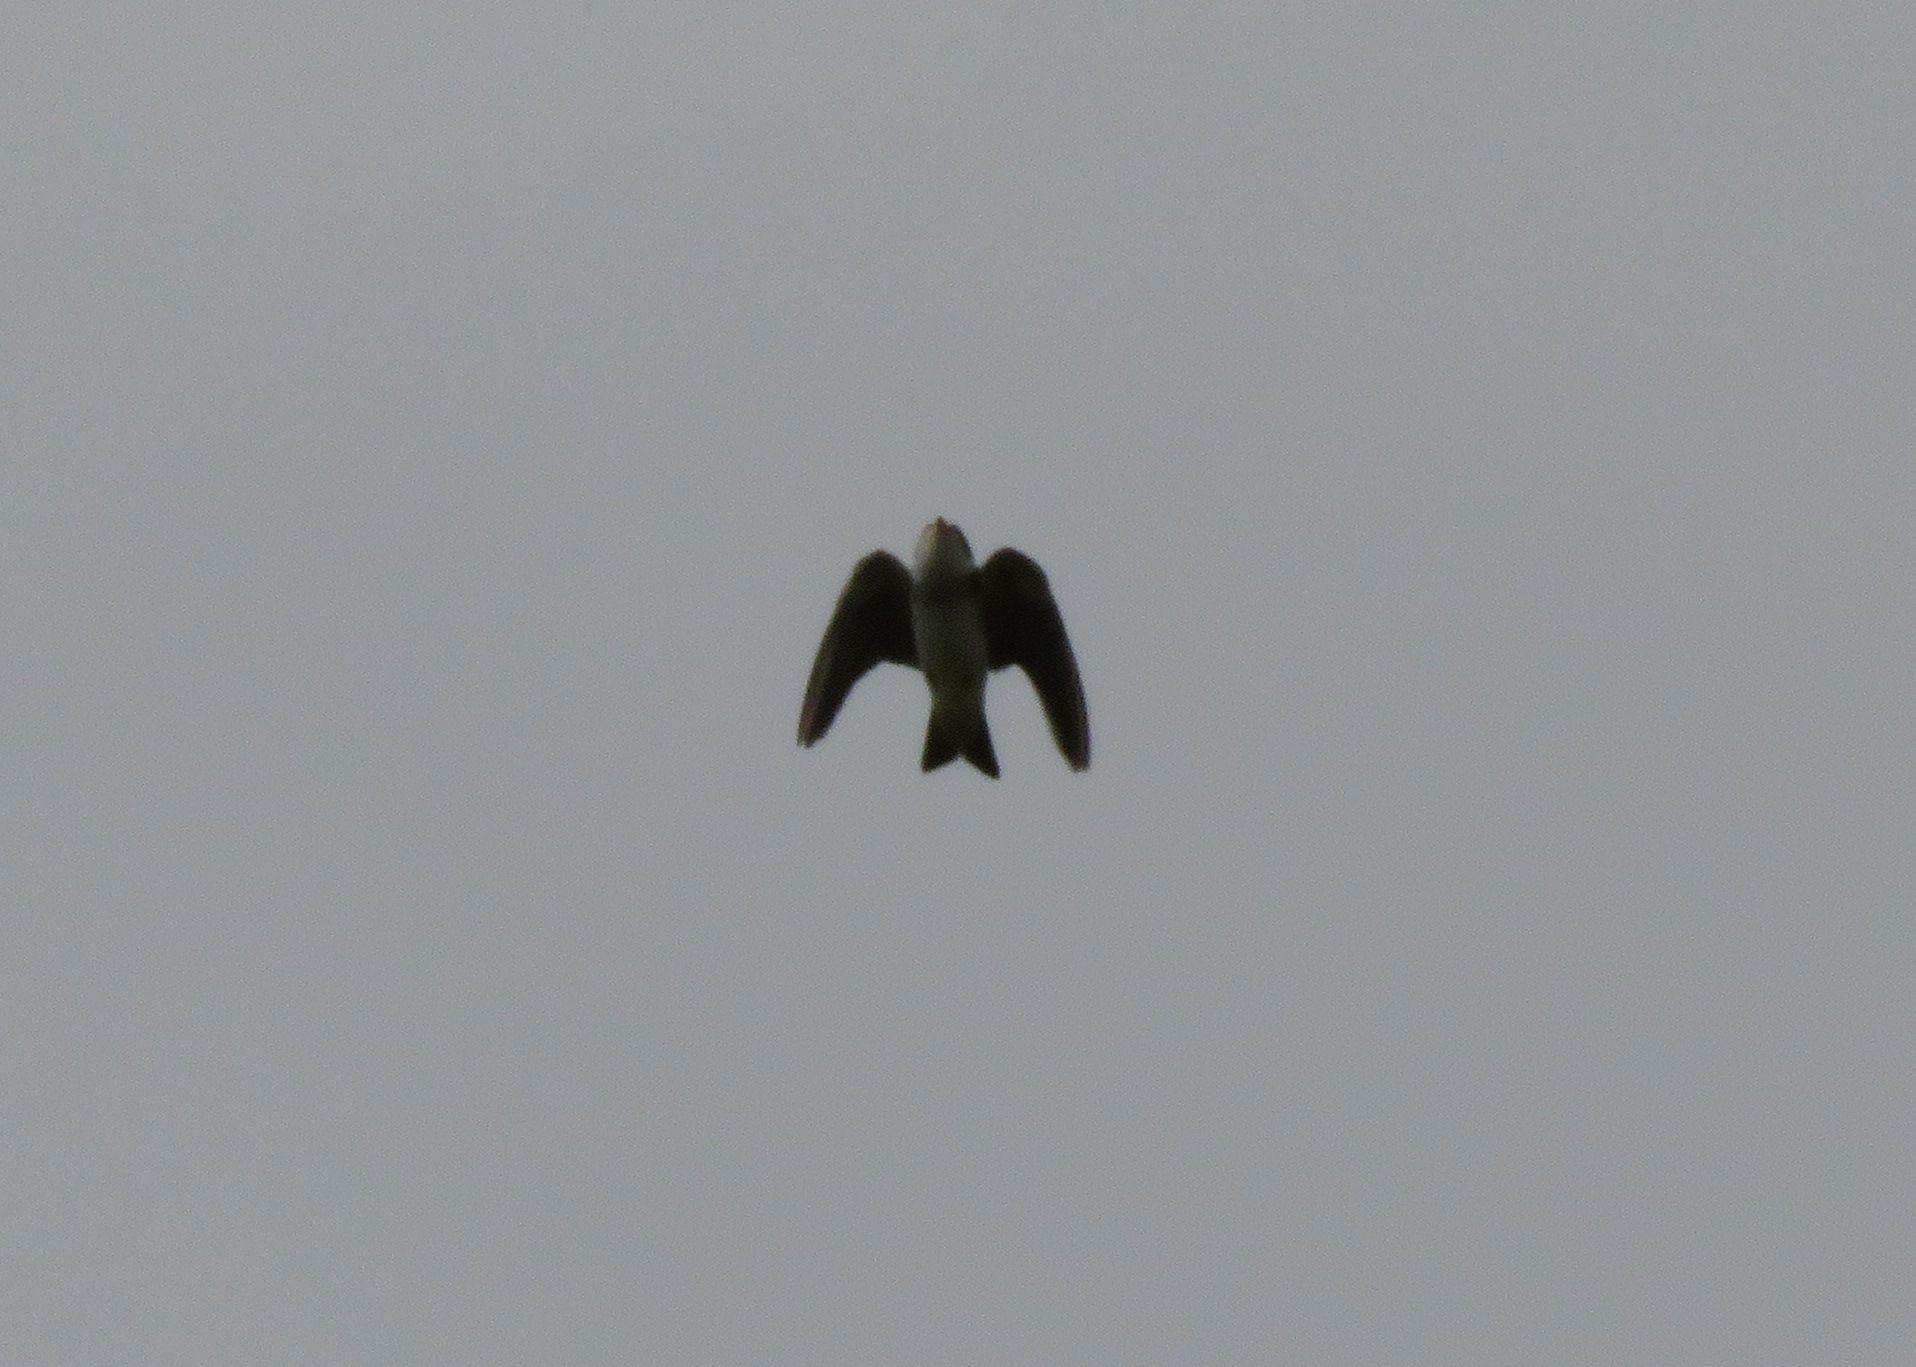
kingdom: Animalia
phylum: Chordata
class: Aves
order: Passeriformes
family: Hirundinidae
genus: Progne
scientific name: Progne tapera
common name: Brown-chested martin
